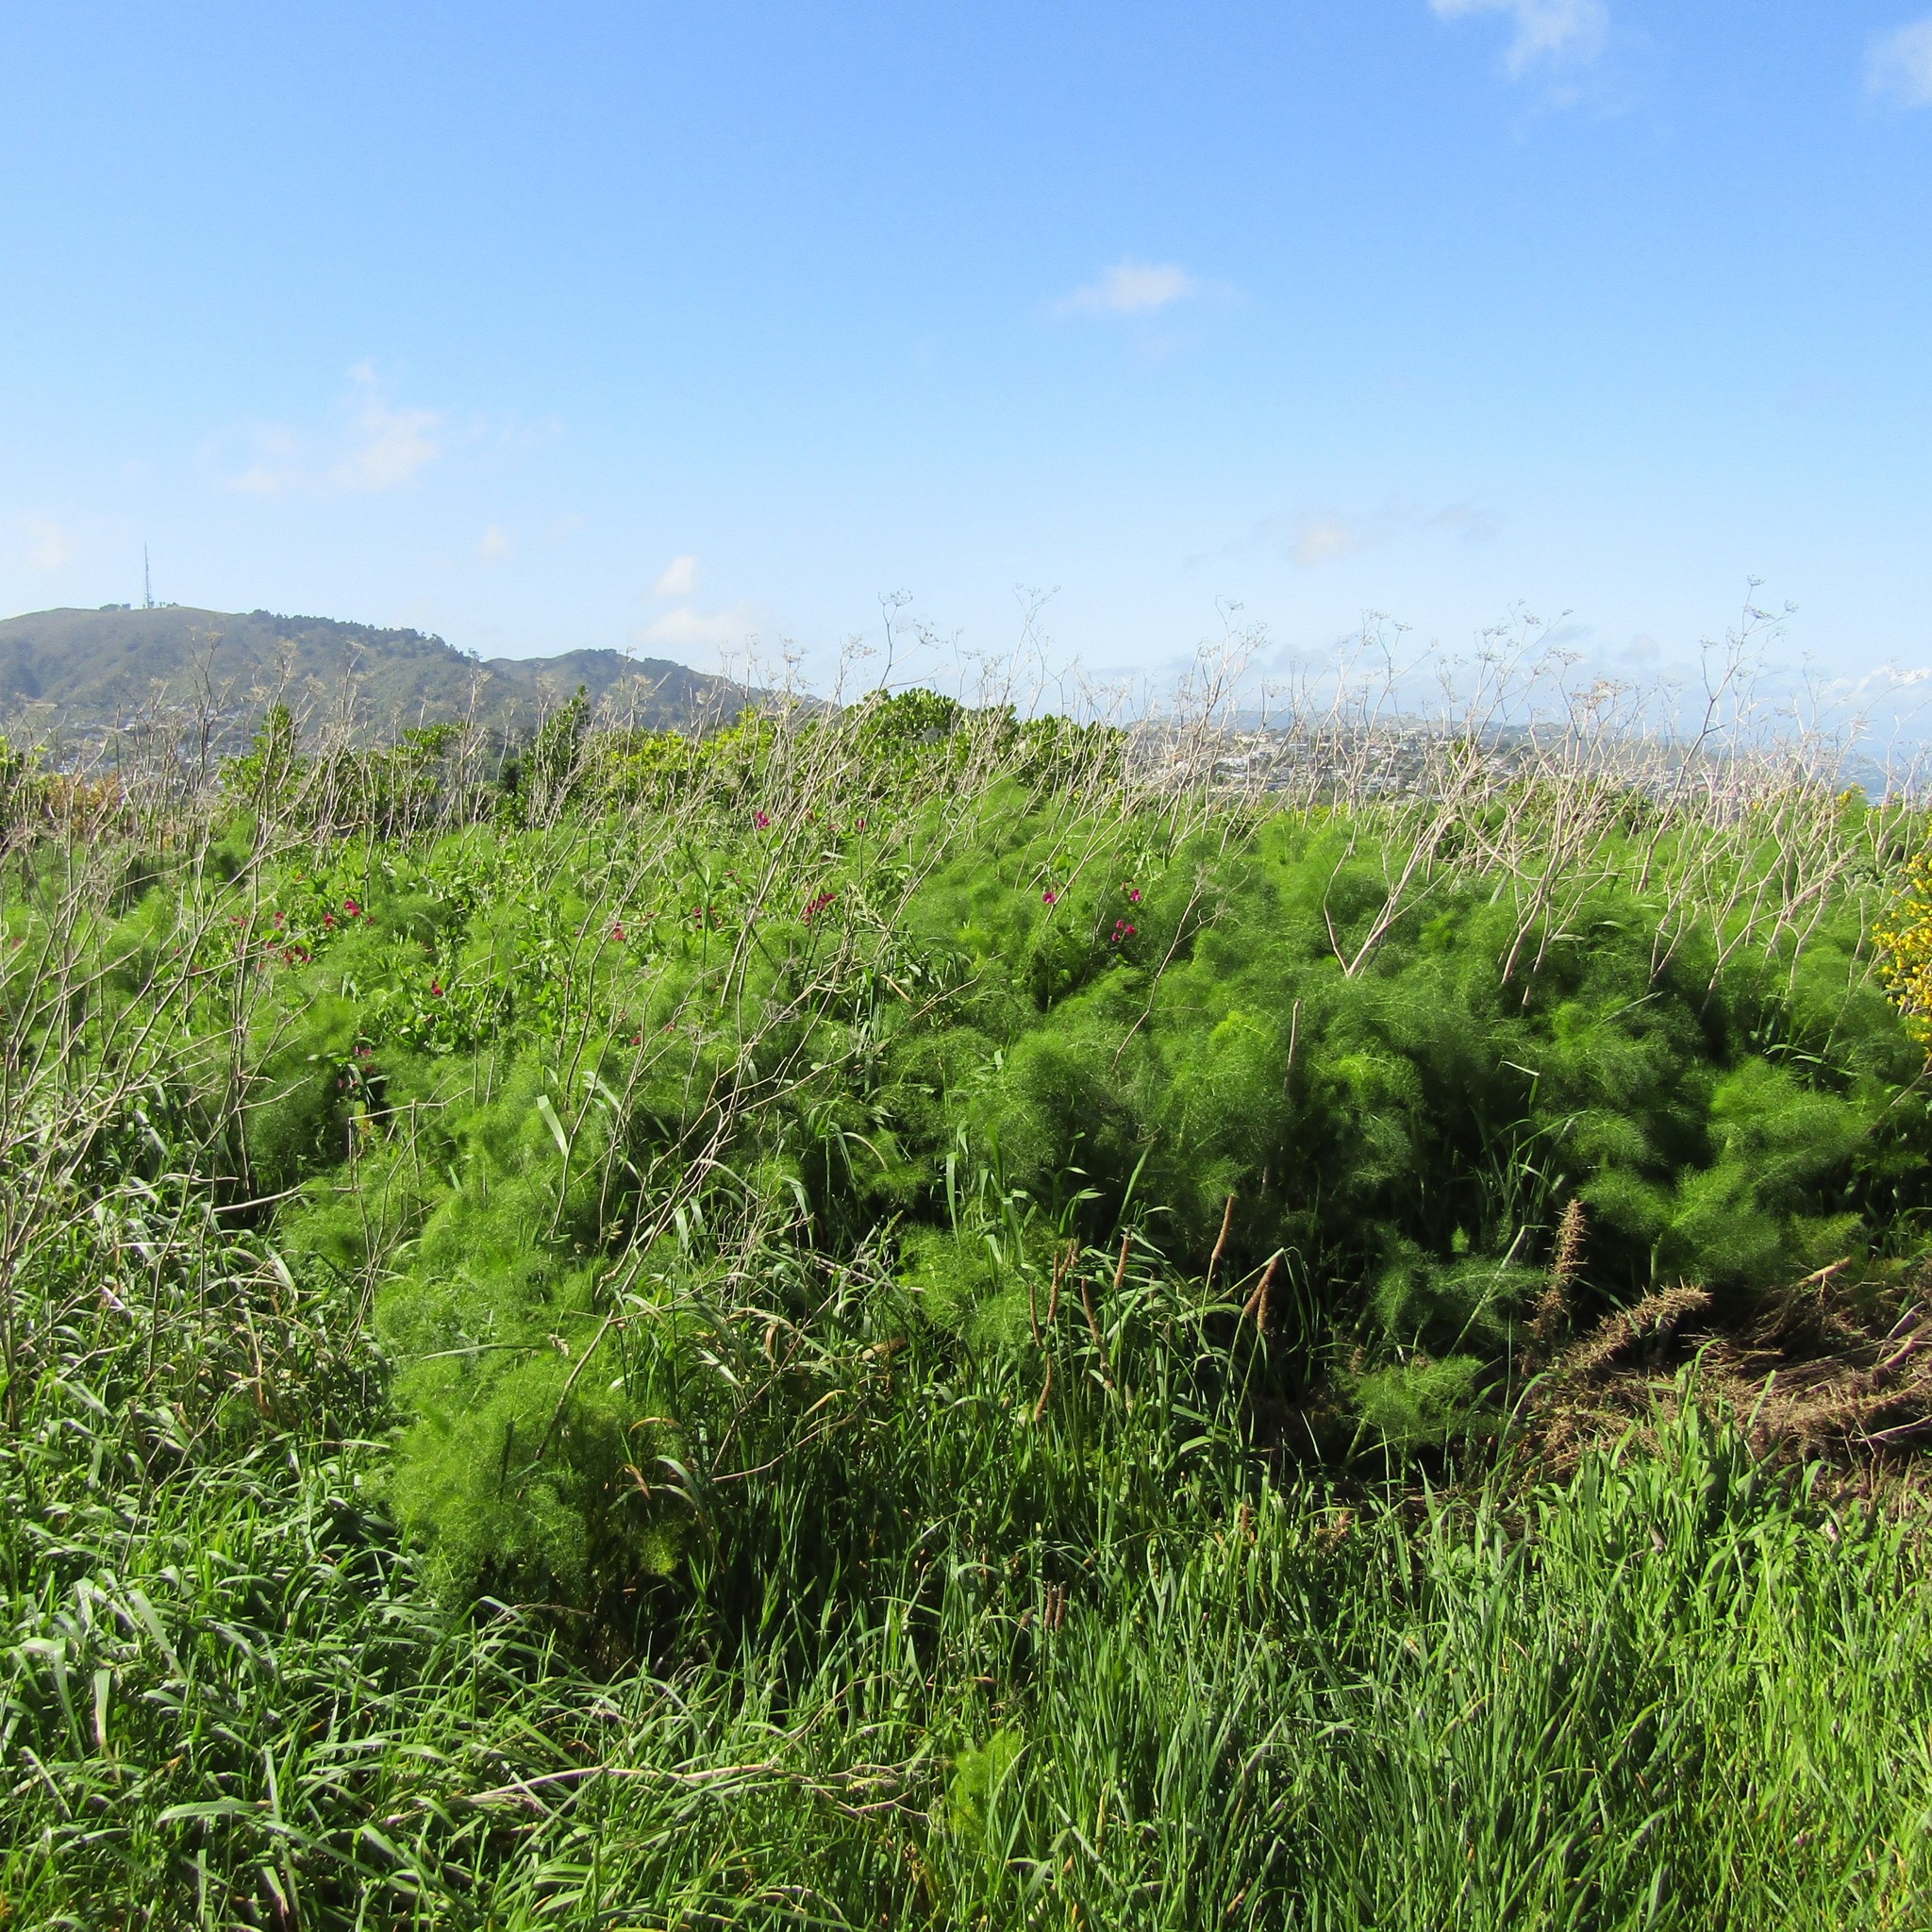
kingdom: Plantae
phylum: Tracheophyta
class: Magnoliopsida
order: Apiales
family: Apiaceae
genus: Foeniculum
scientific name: Foeniculum vulgare
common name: Fennel
